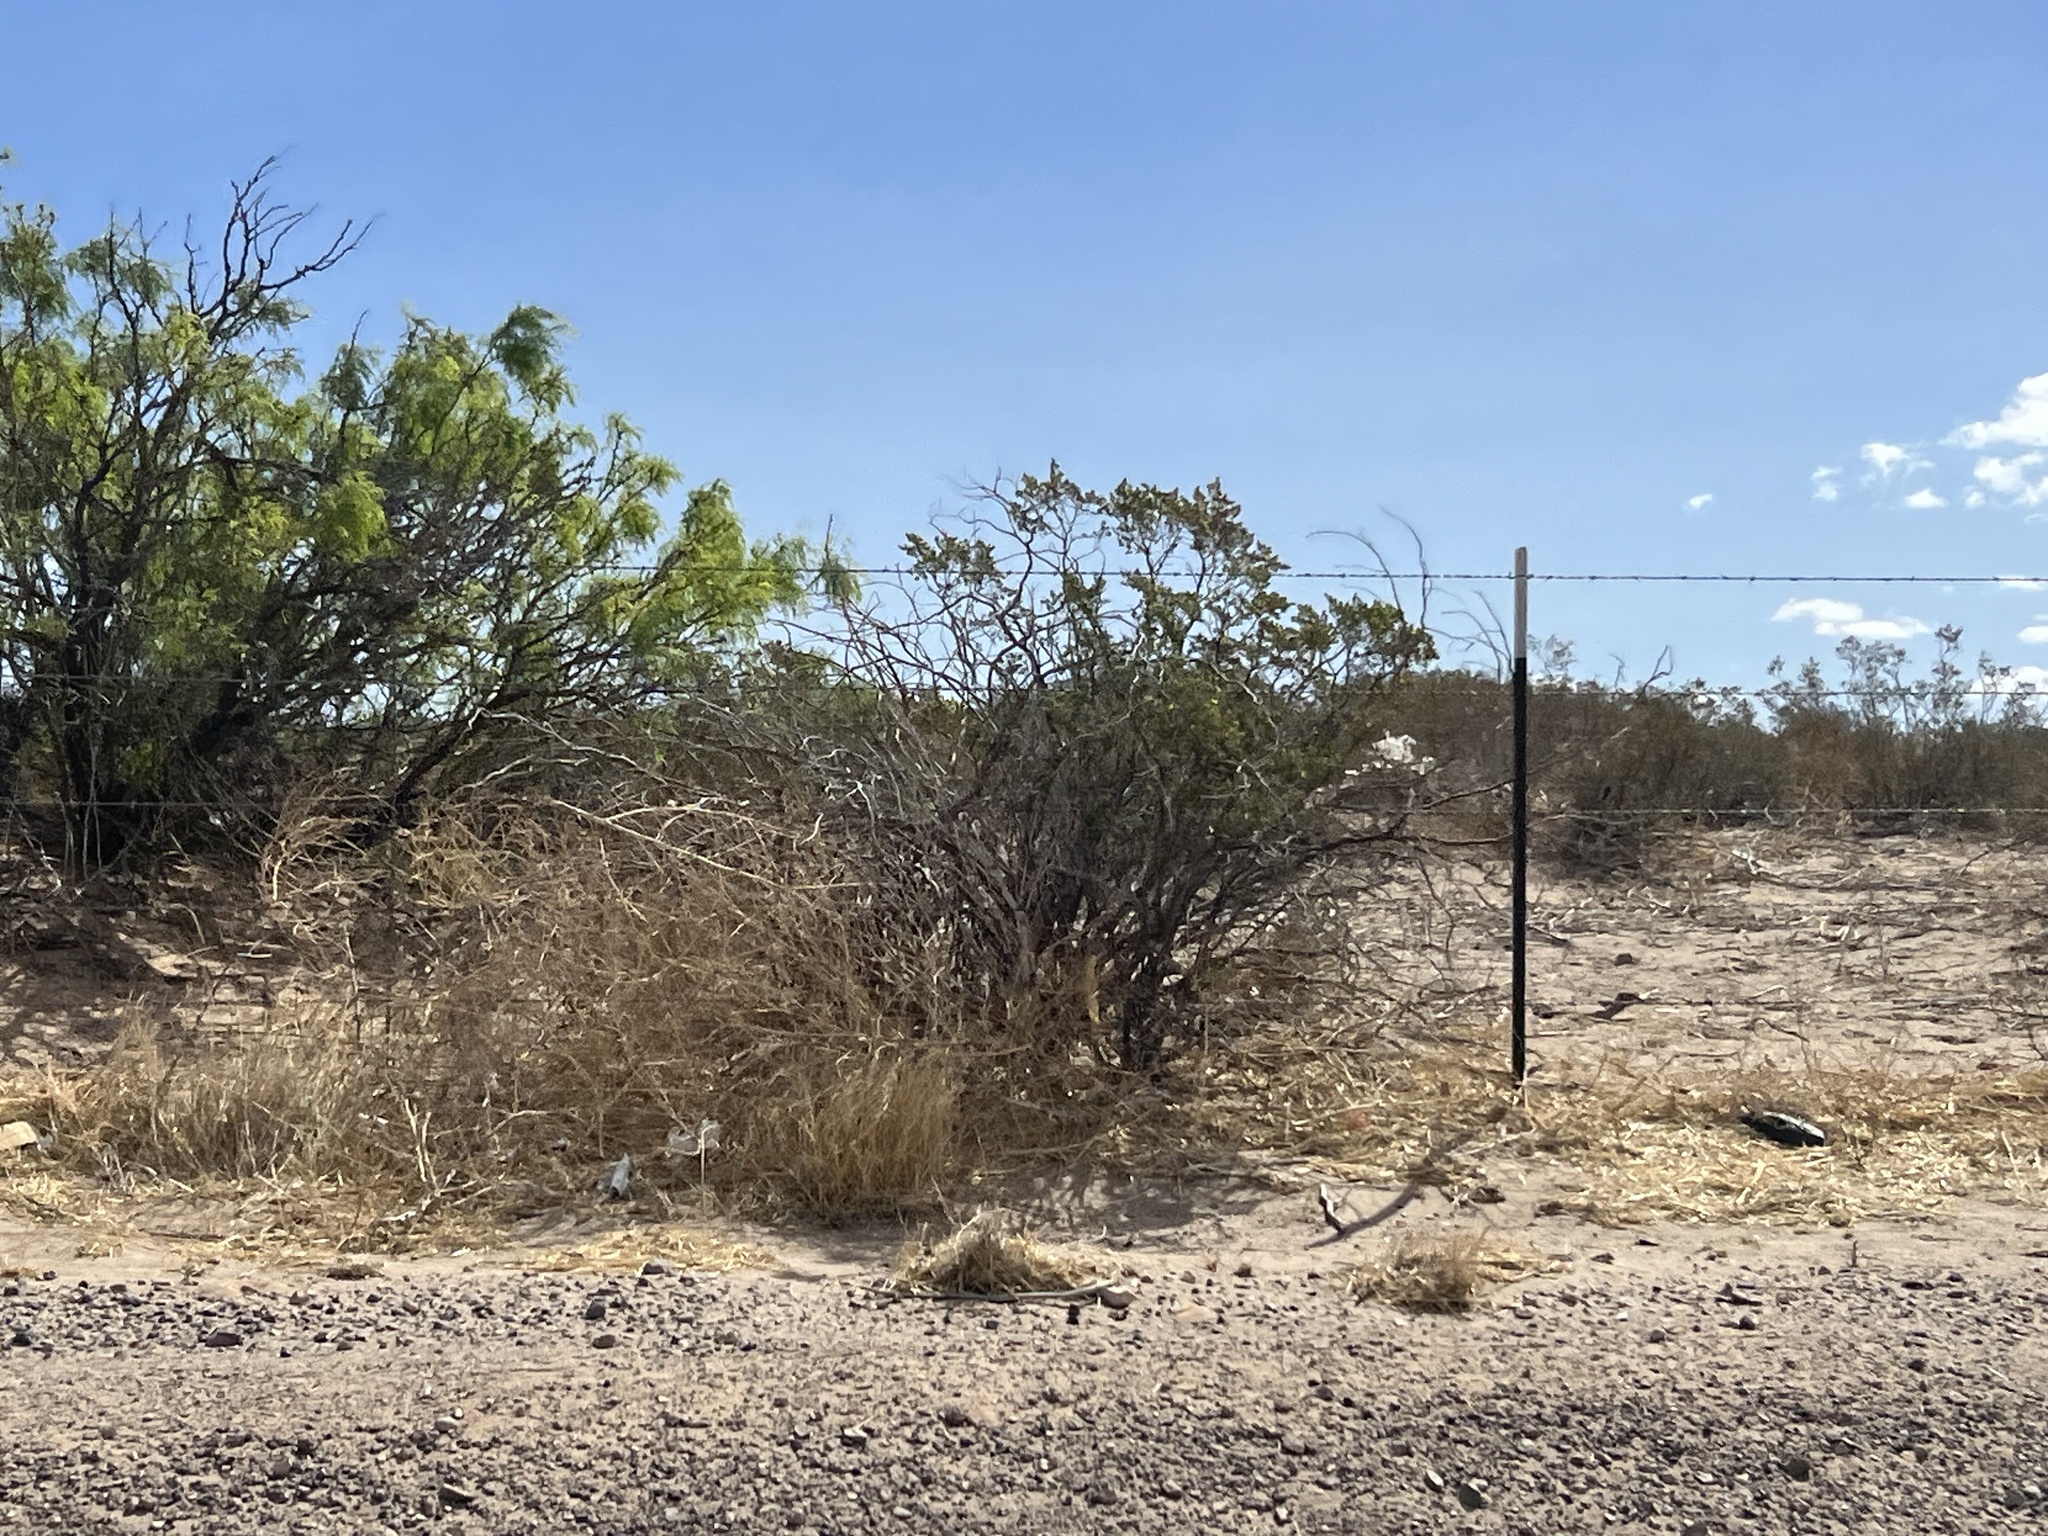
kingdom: Plantae
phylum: Tracheophyta
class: Magnoliopsida
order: Zygophyllales
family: Zygophyllaceae
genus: Larrea
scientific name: Larrea tridentata
